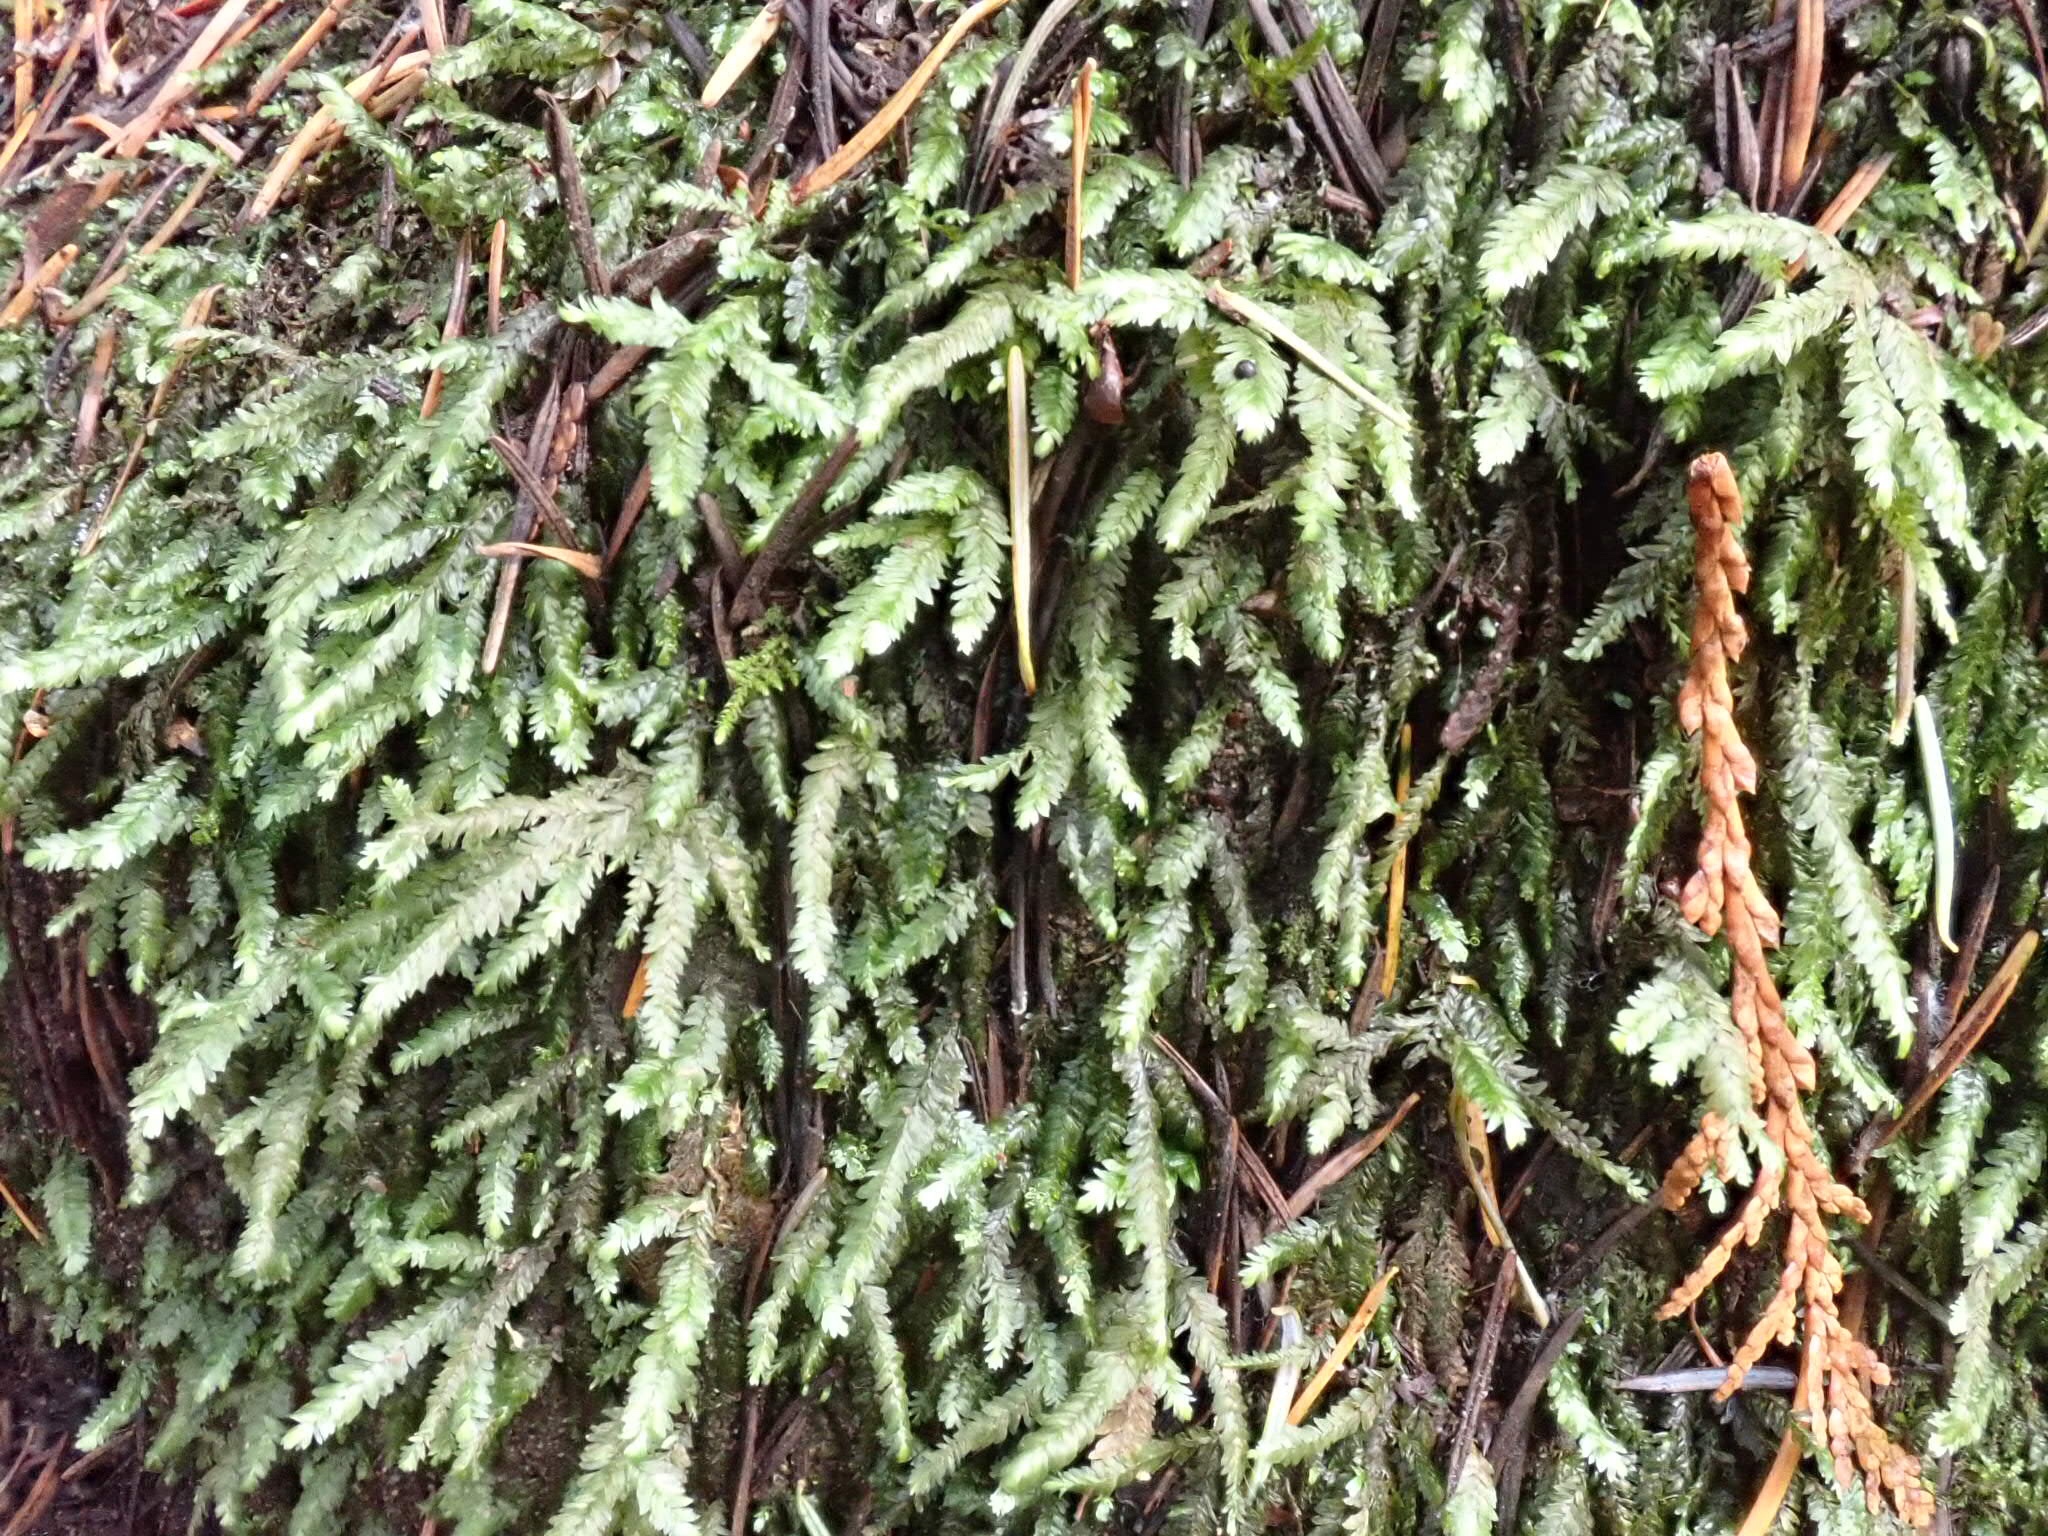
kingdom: Plantae
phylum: Bryophyta
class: Bryopsida
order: Hypnales
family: Plagiotheciaceae
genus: Plagiothecium
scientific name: Plagiothecium undulatum
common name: Waved silk-moss
